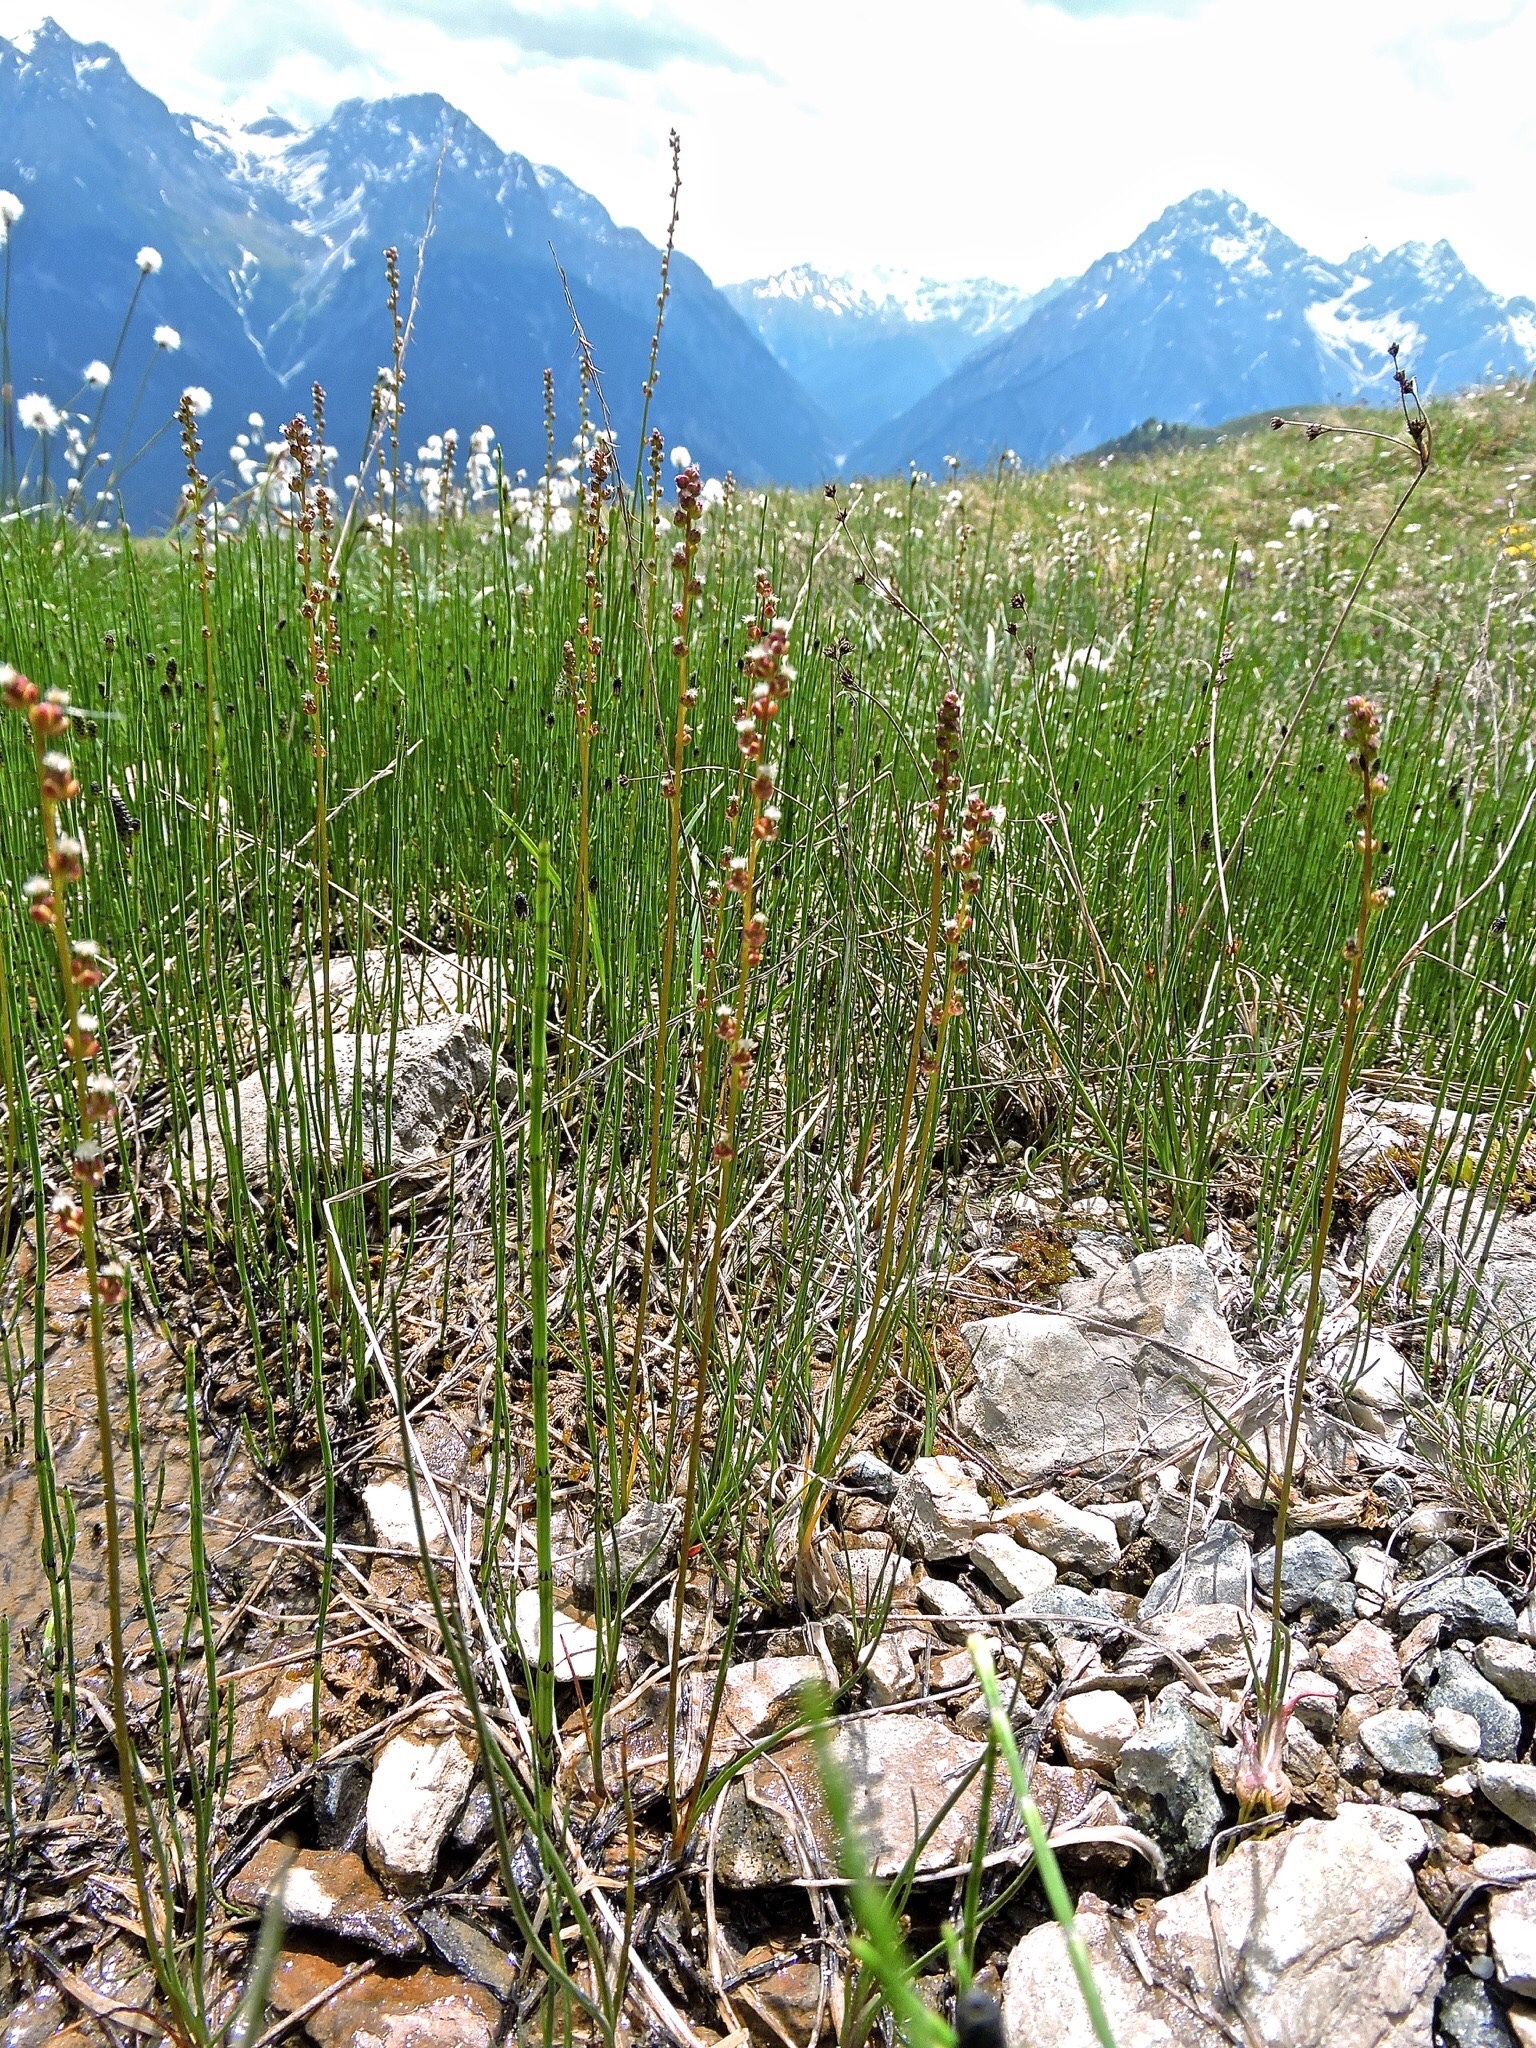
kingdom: Plantae
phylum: Tracheophyta
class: Liliopsida
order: Alismatales
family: Juncaginaceae
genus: Triglochin
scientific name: Triglochin palustris
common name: Marsh arrowgrass
